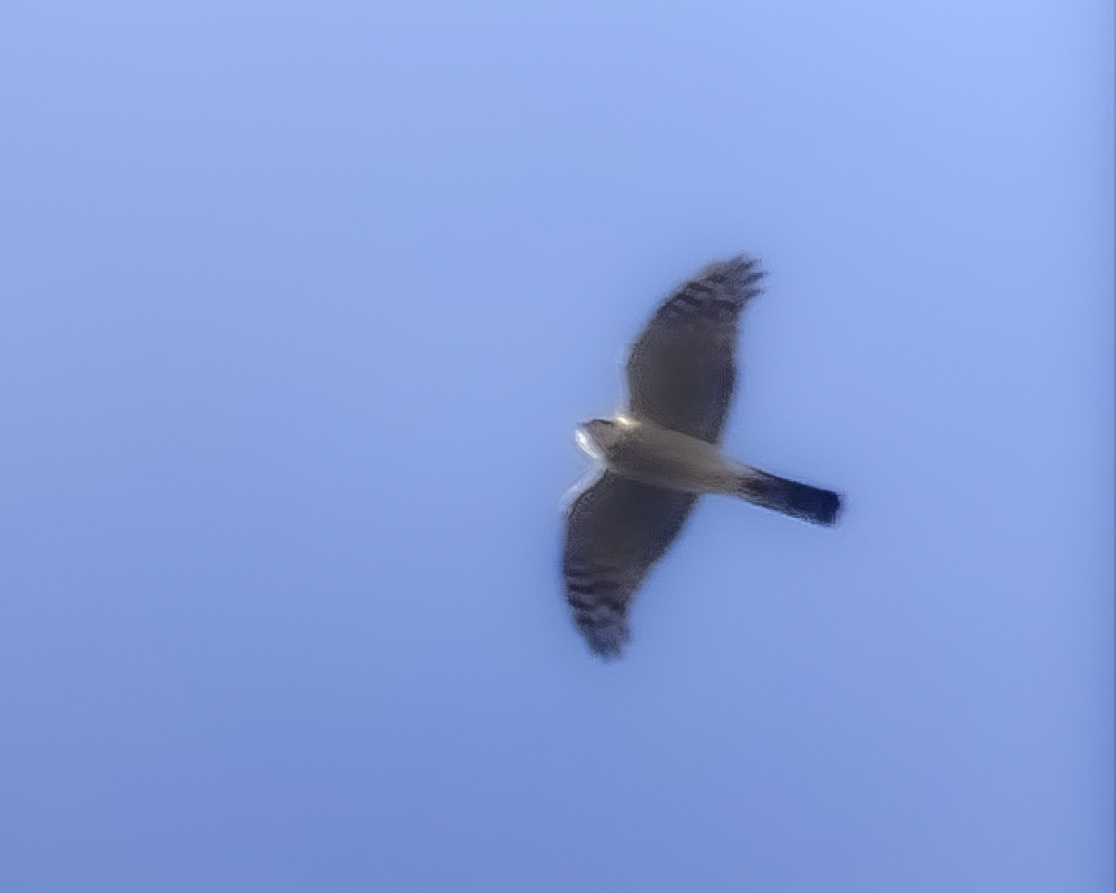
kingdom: Animalia
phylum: Chordata
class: Aves
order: Accipitriformes
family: Accipitridae
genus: Accipiter
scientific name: Accipiter nisus
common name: Eurasian sparrowhawk
